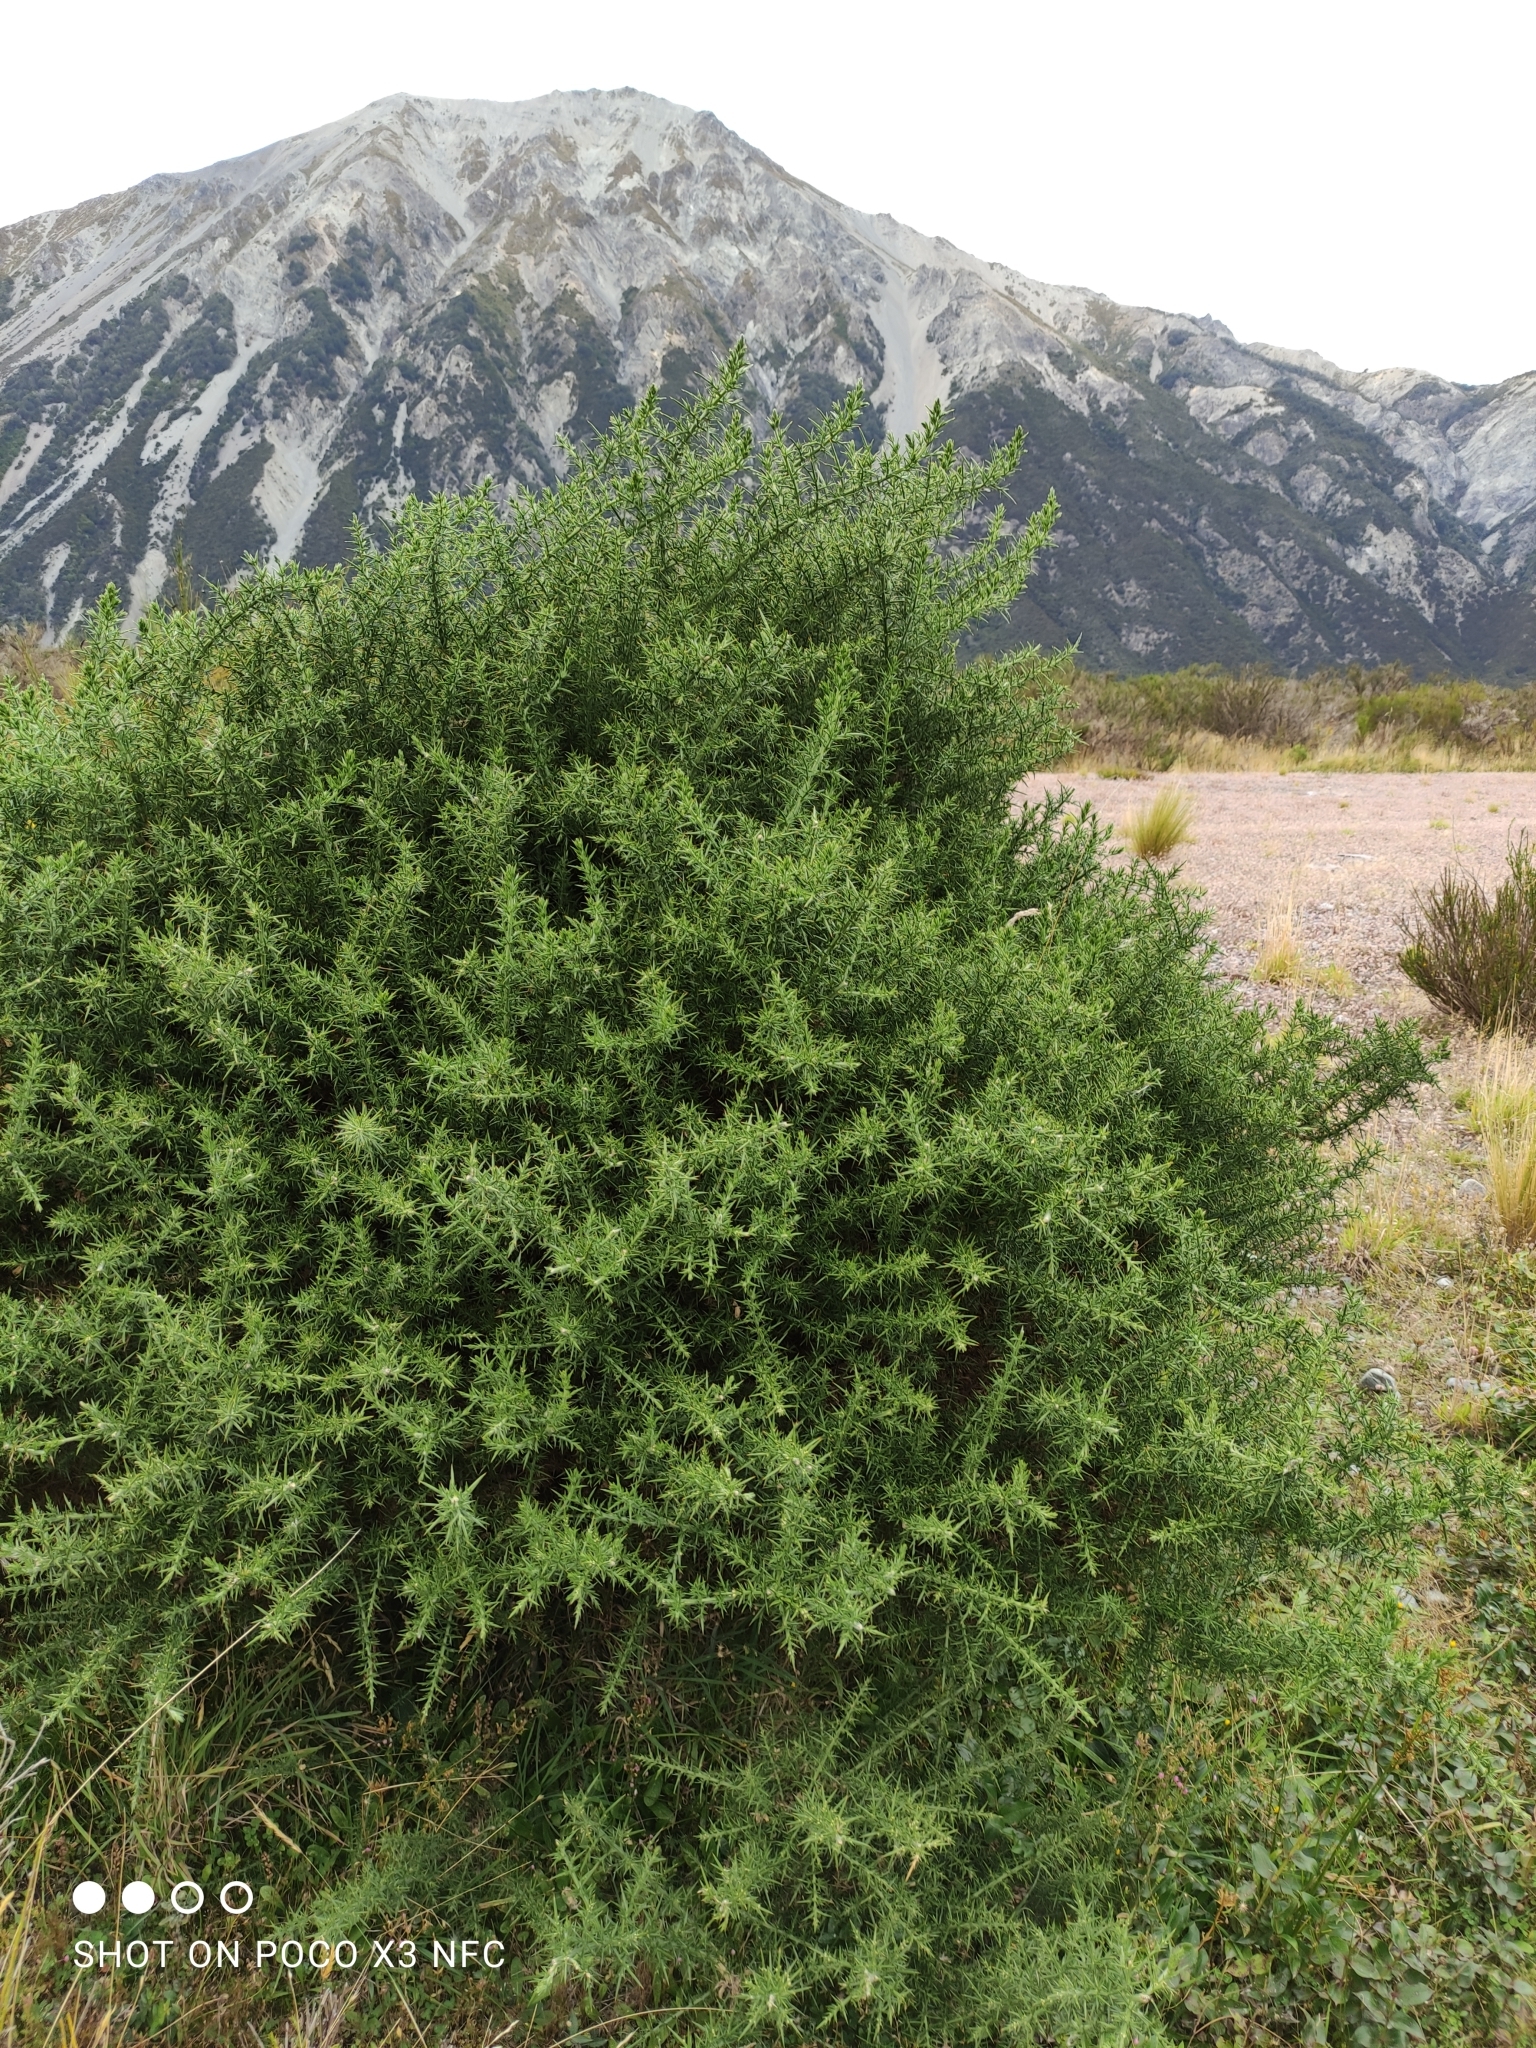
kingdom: Plantae
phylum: Tracheophyta
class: Magnoliopsida
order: Fabales
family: Fabaceae
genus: Ulex
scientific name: Ulex europaeus
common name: Common gorse
